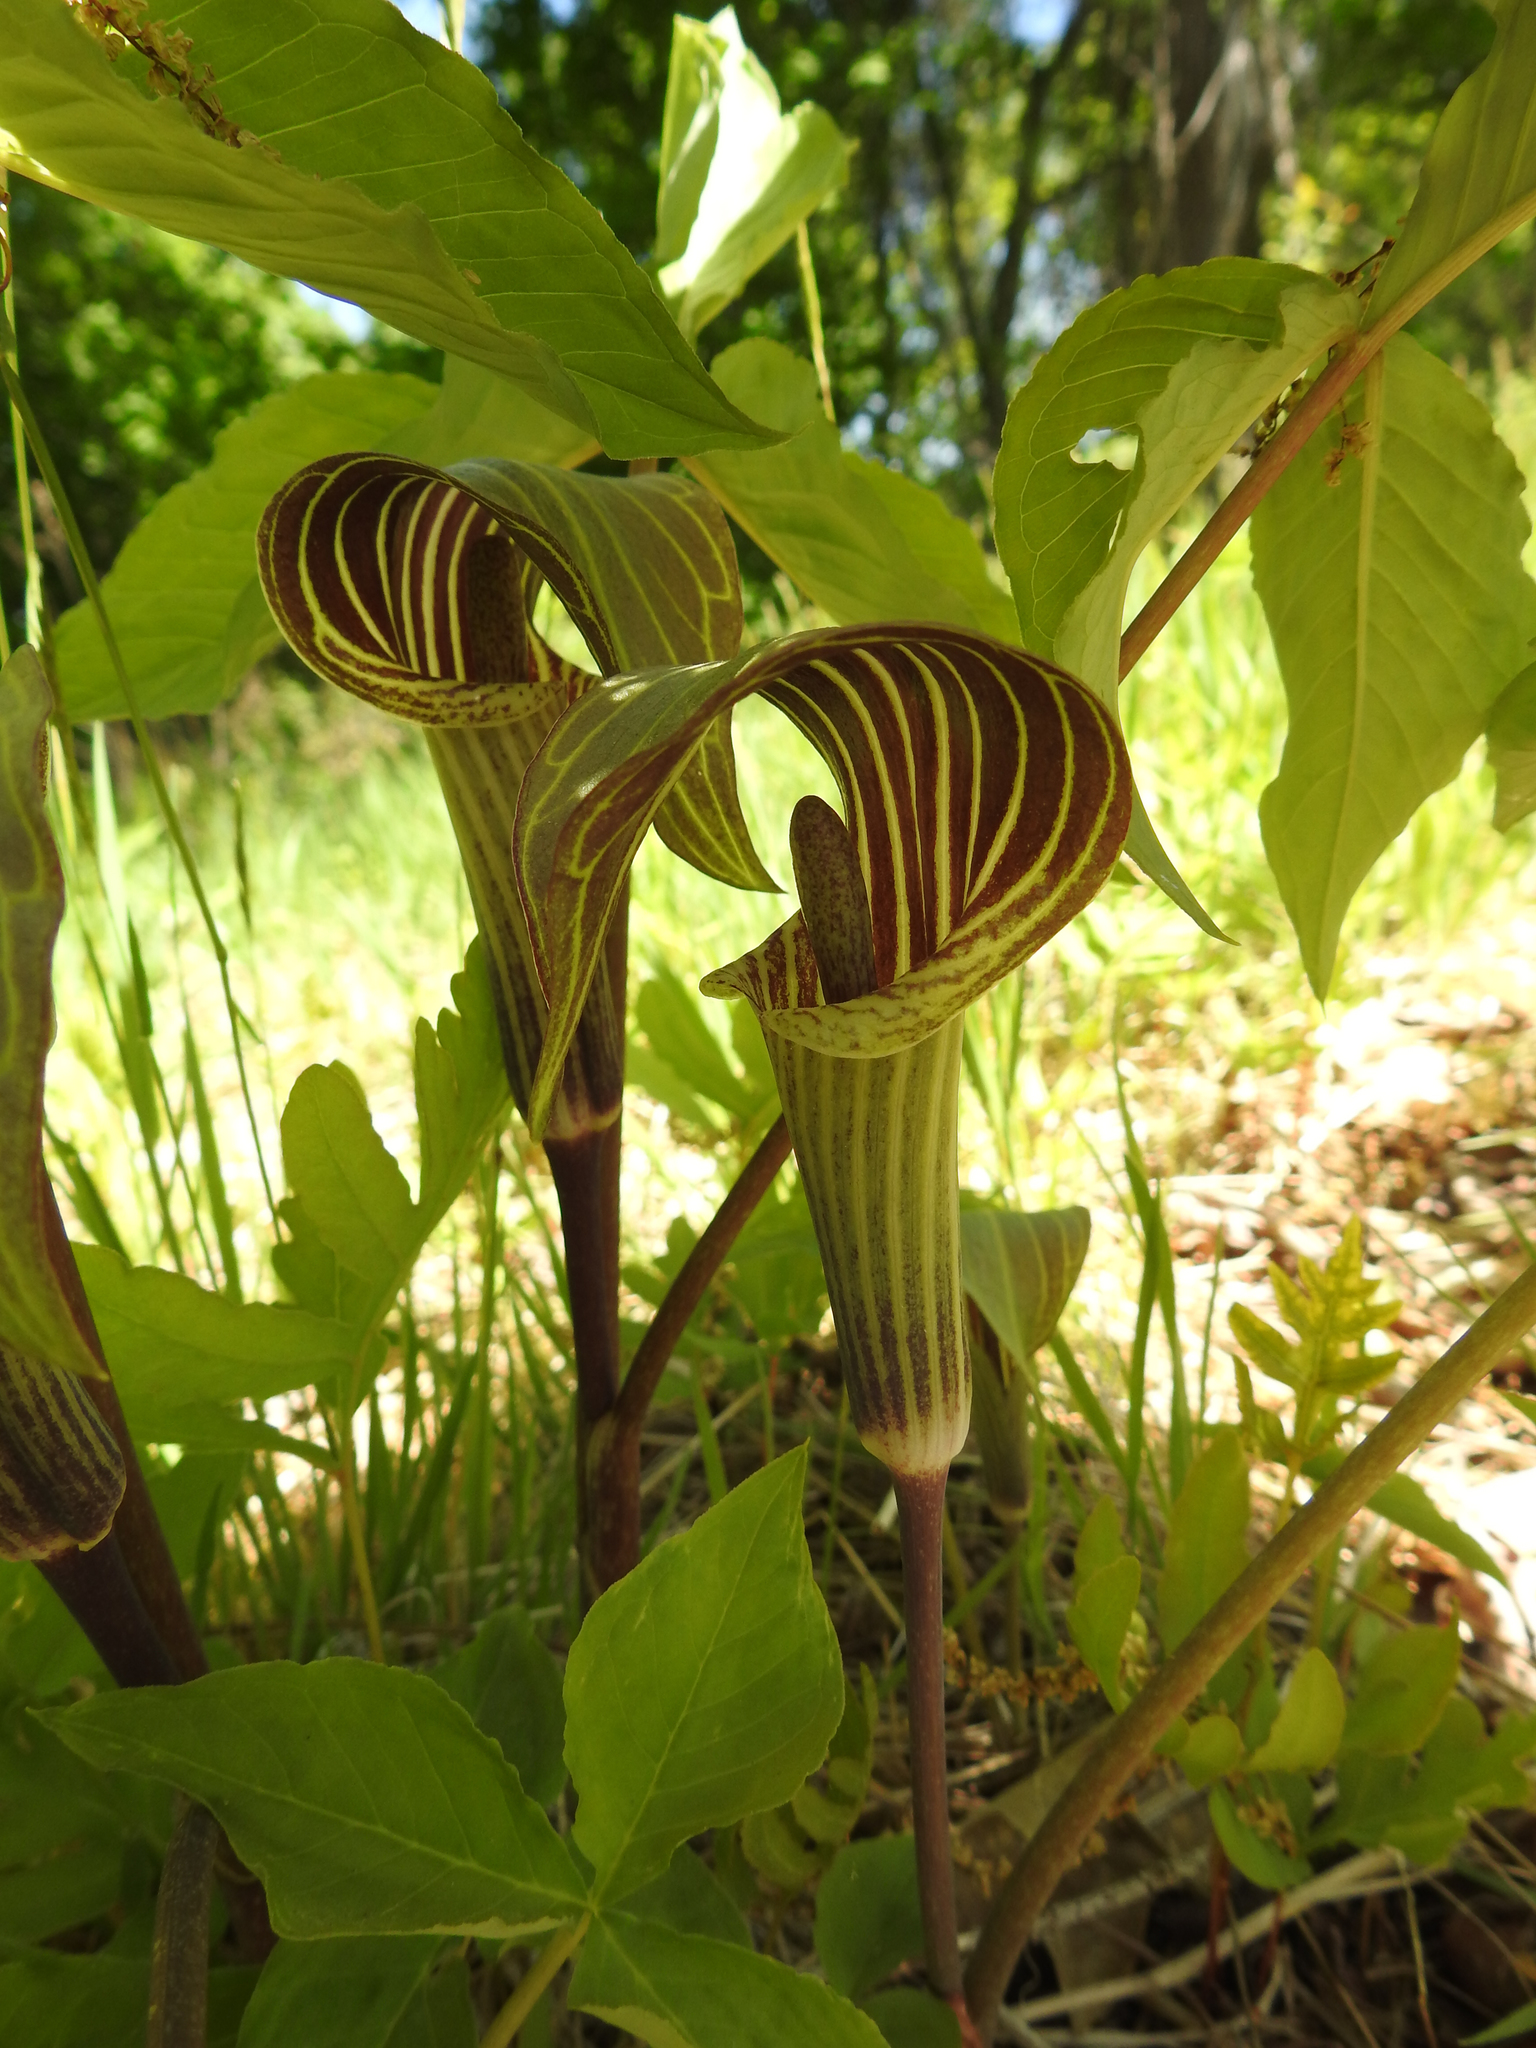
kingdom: Plantae
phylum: Tracheophyta
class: Liliopsida
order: Alismatales
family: Araceae
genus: Arisaema
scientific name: Arisaema triphyllum
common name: Jack-in-the-pulpit
